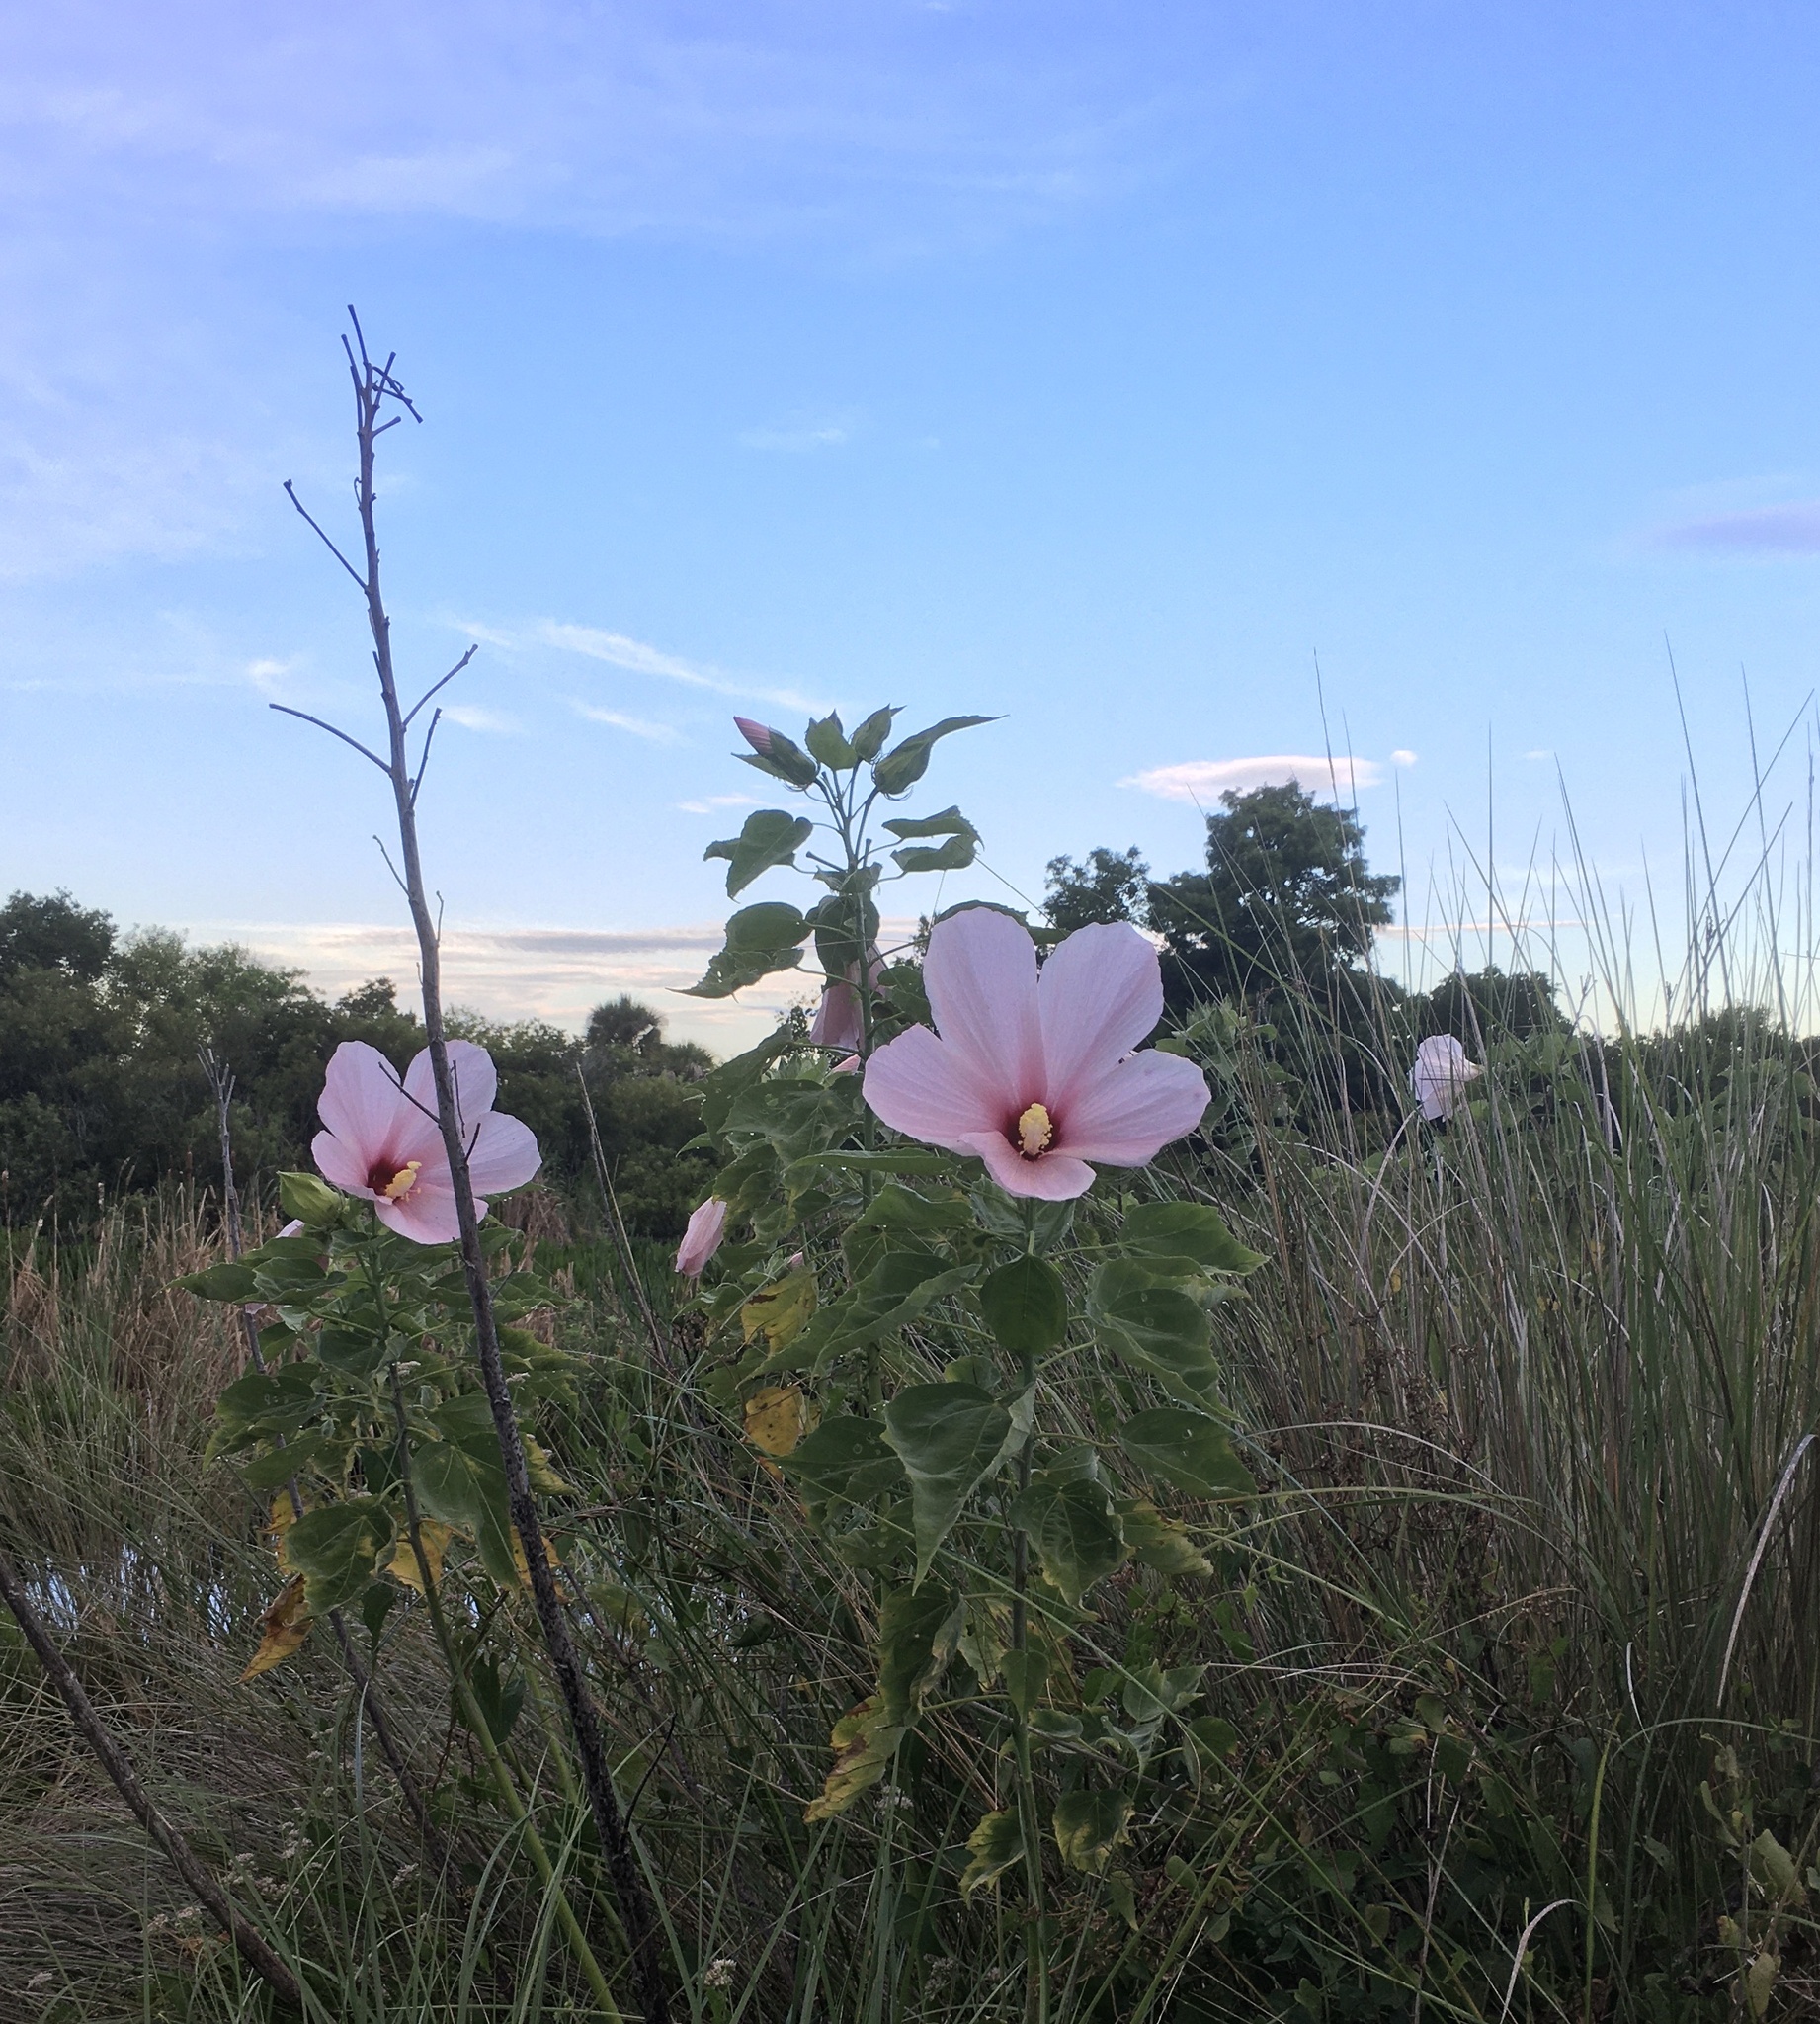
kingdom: Plantae
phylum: Tracheophyta
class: Magnoliopsida
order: Malvales
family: Malvaceae
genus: Hibiscus
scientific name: Hibiscus grandiflorus
